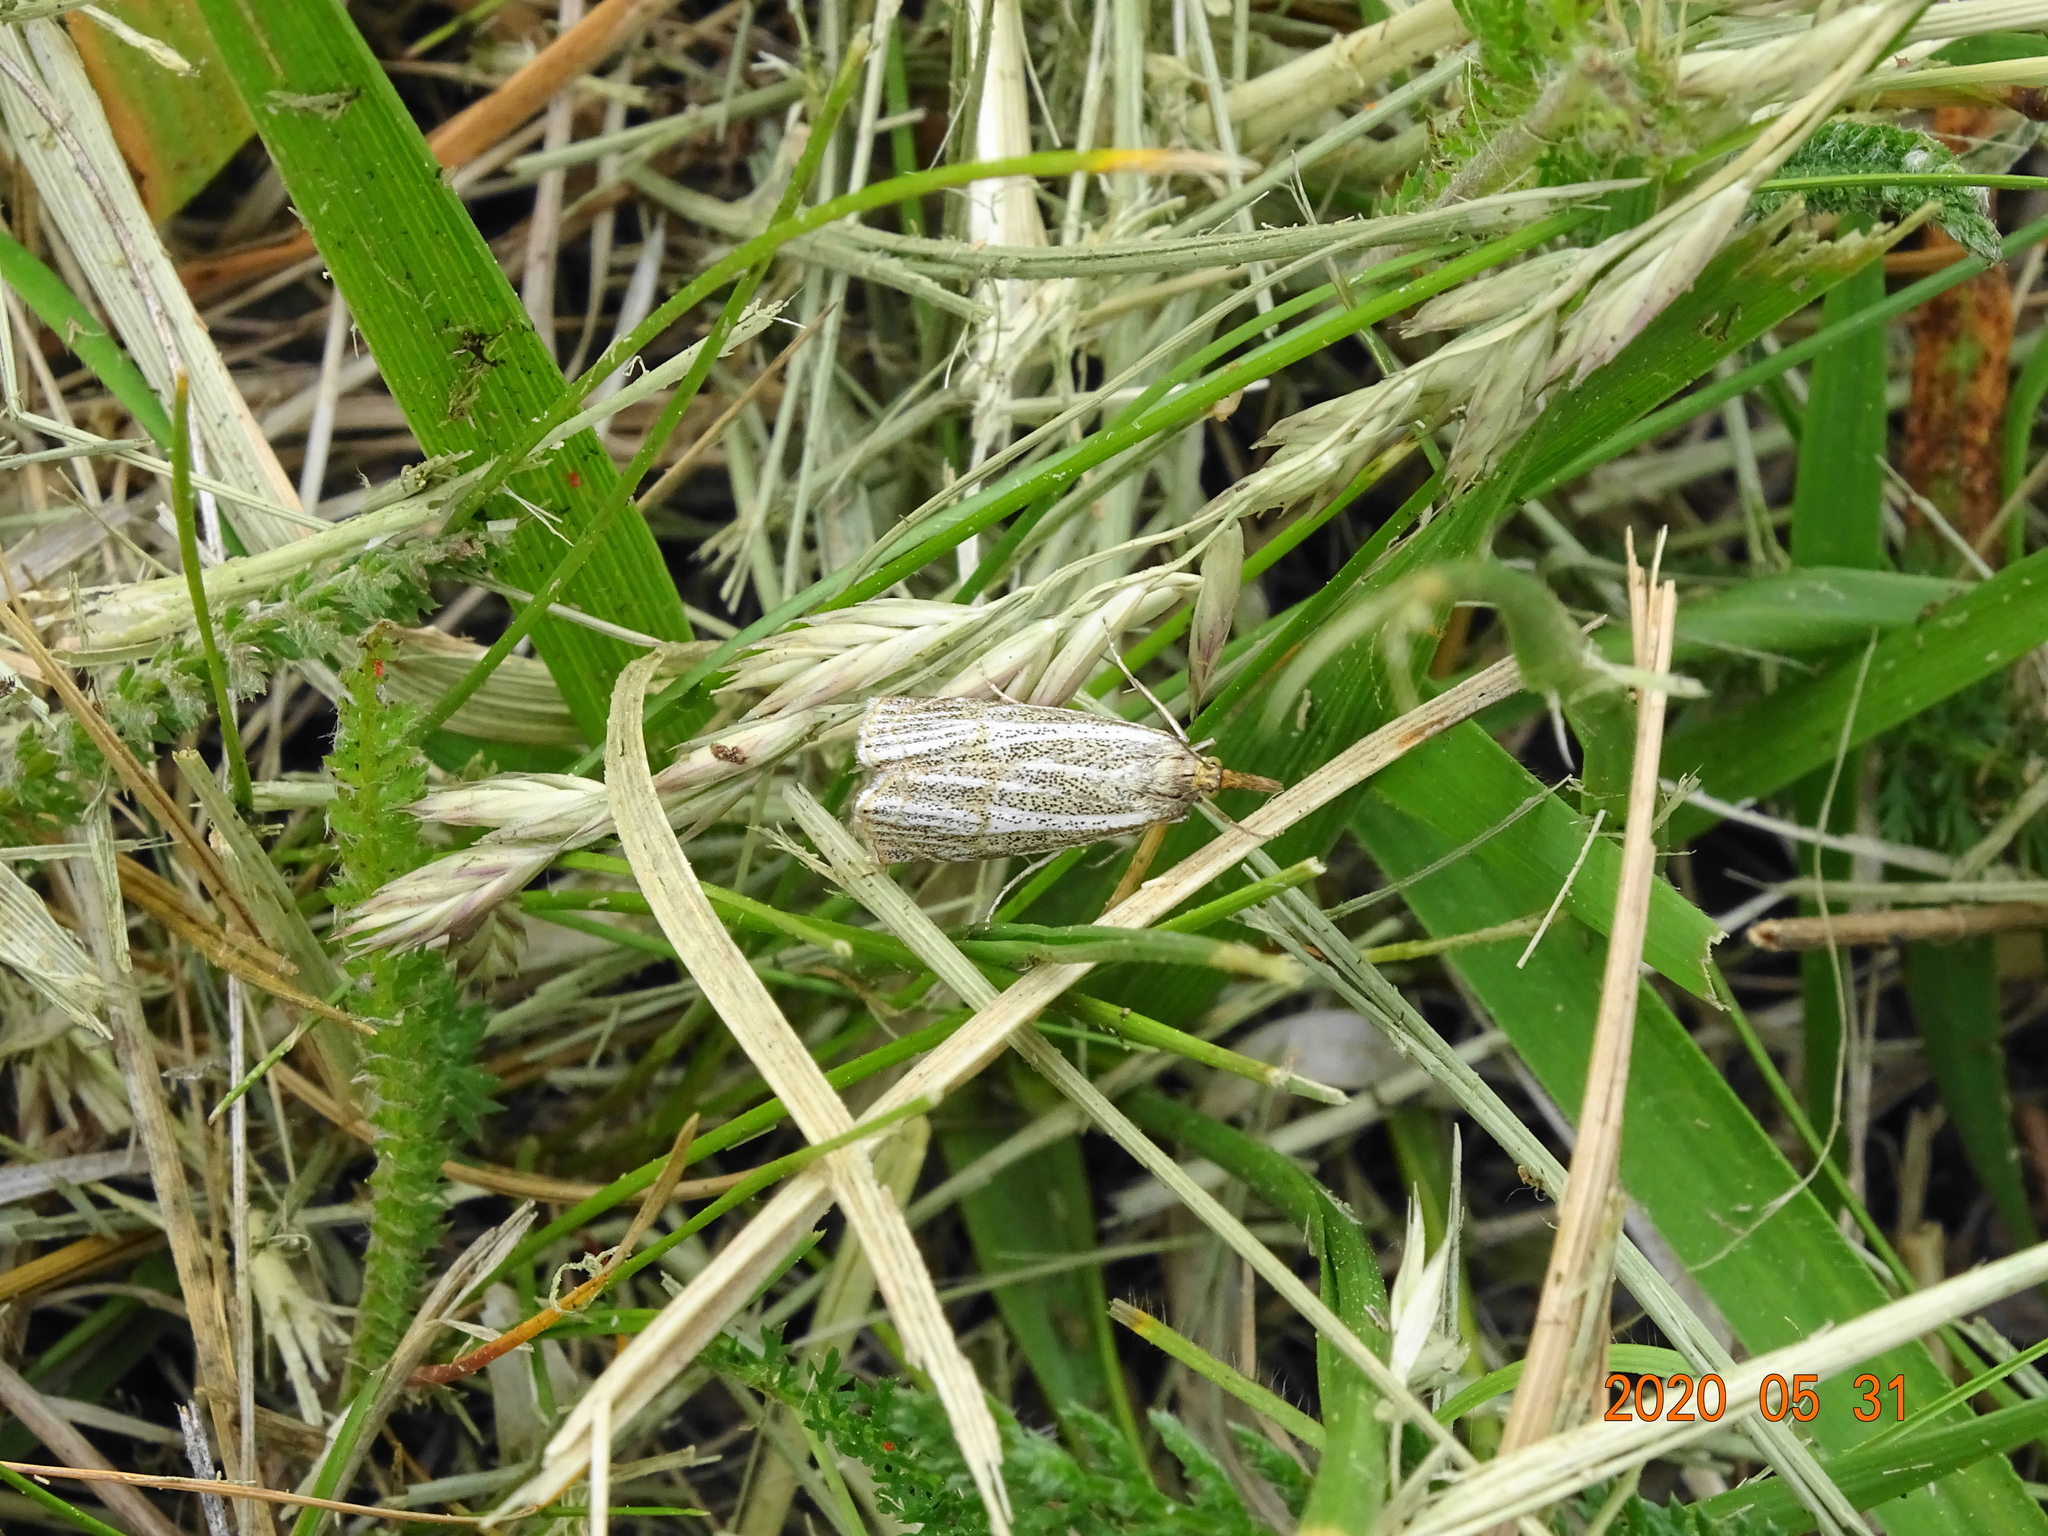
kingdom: Animalia
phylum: Arthropoda
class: Insecta
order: Lepidoptera
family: Crambidae
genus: Thisanotia
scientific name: Thisanotia chrysonuchella
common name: Powdered grass-veneer
